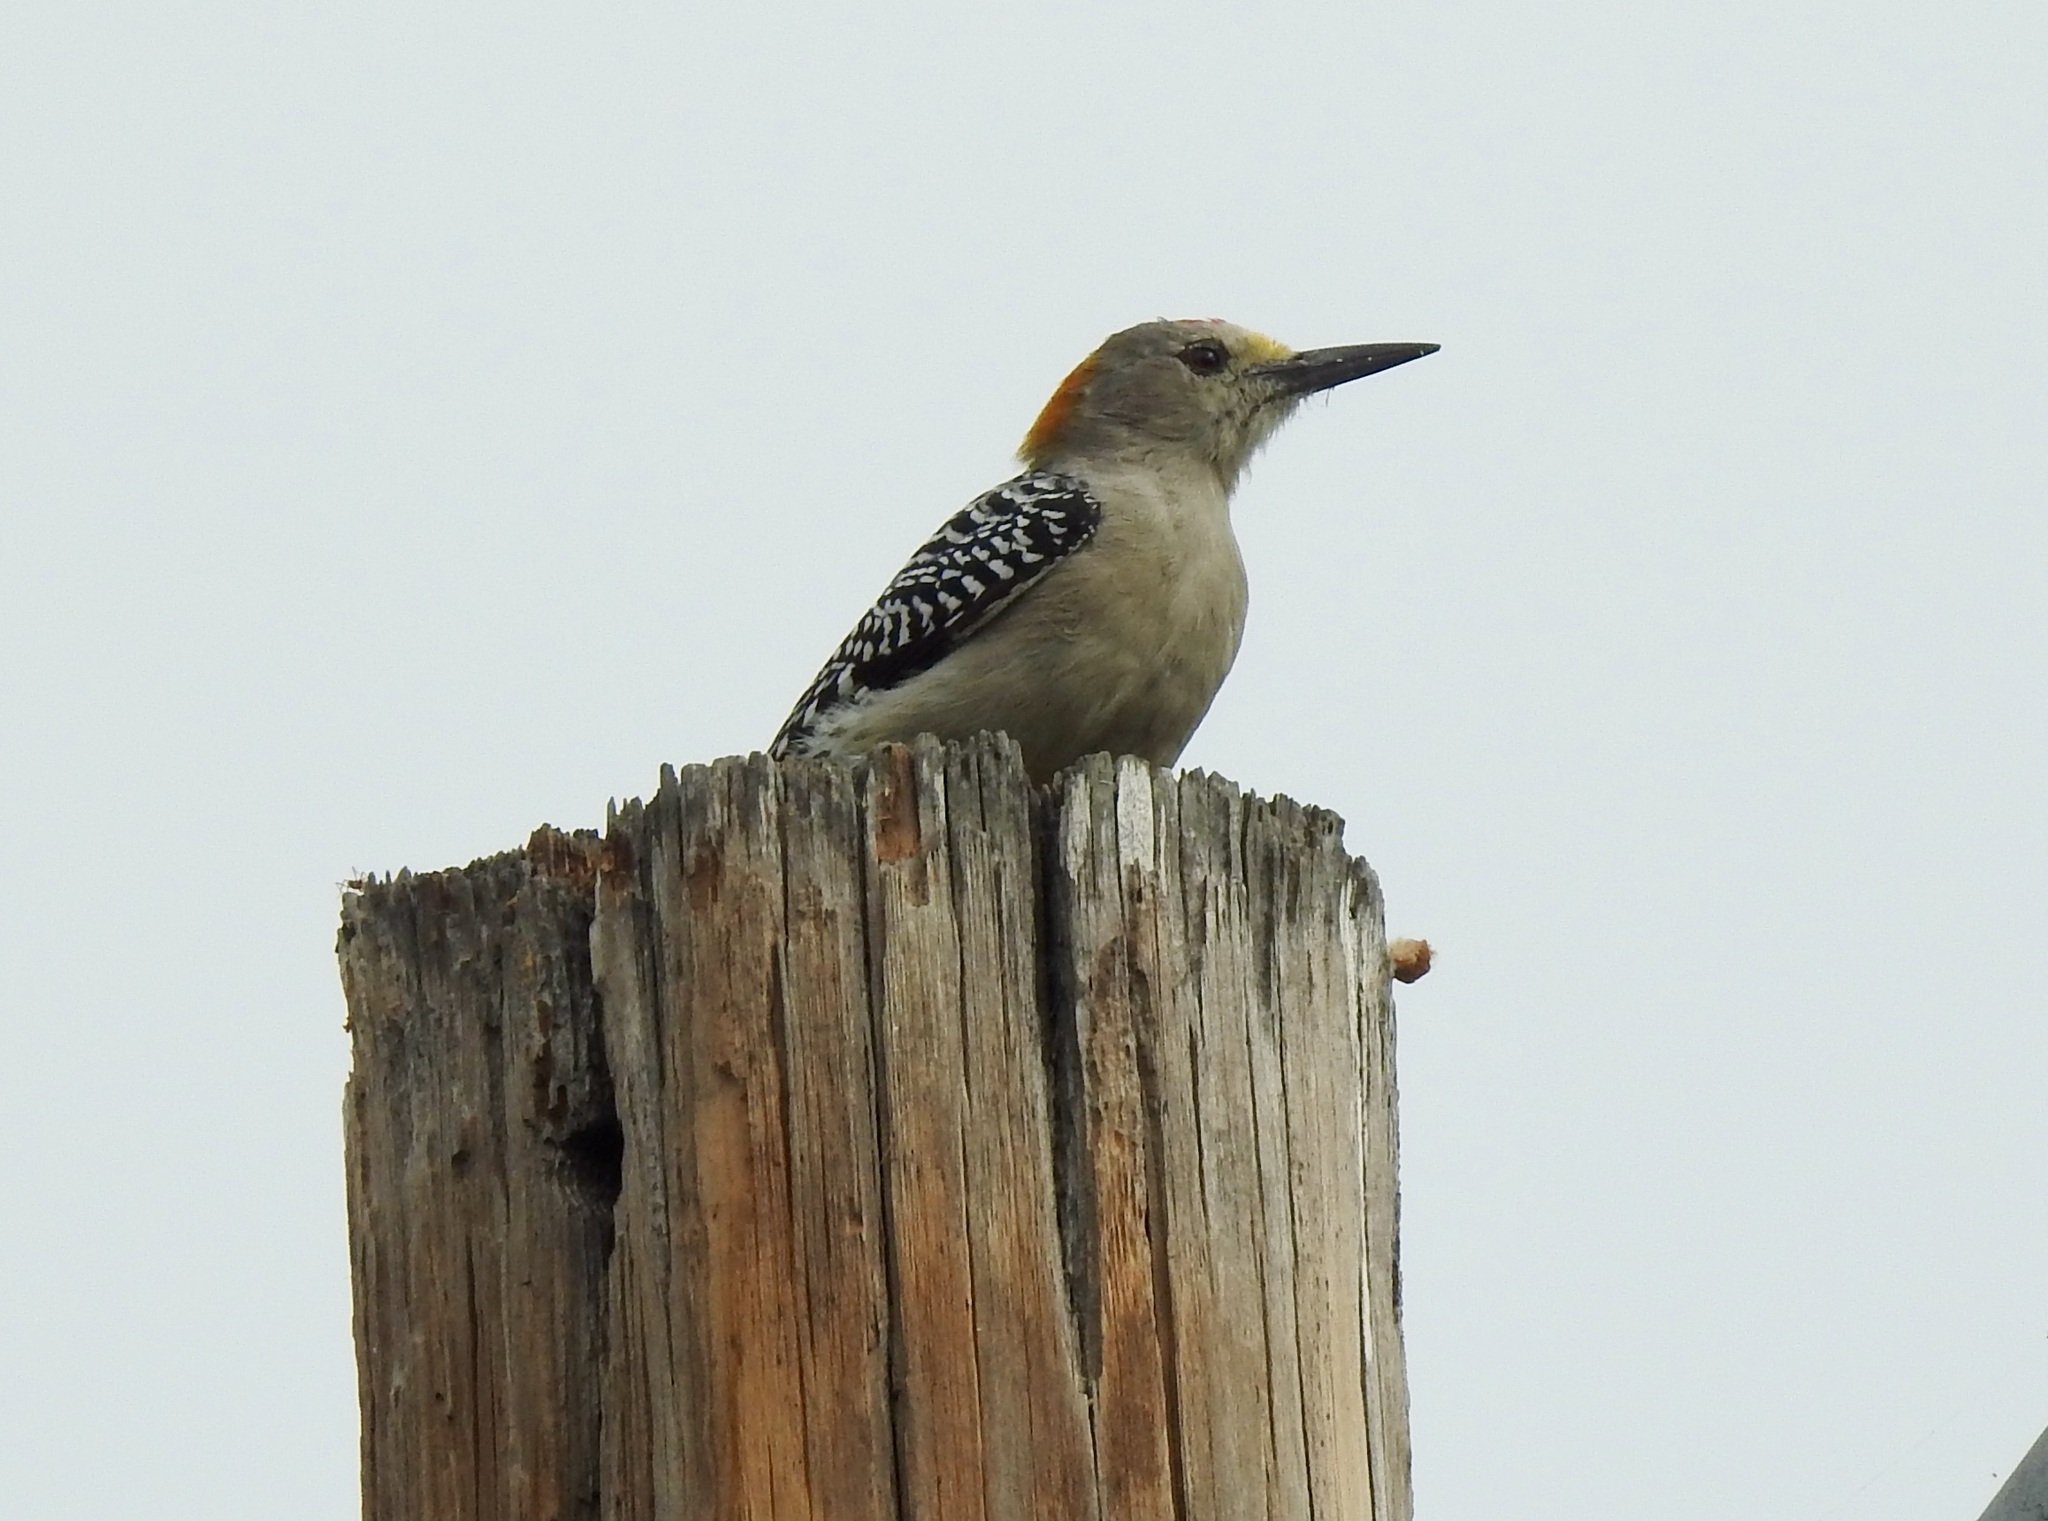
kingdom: Animalia
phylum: Chordata
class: Aves
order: Piciformes
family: Picidae
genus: Melanerpes
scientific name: Melanerpes aurifrons
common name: Golden-fronted woodpecker
